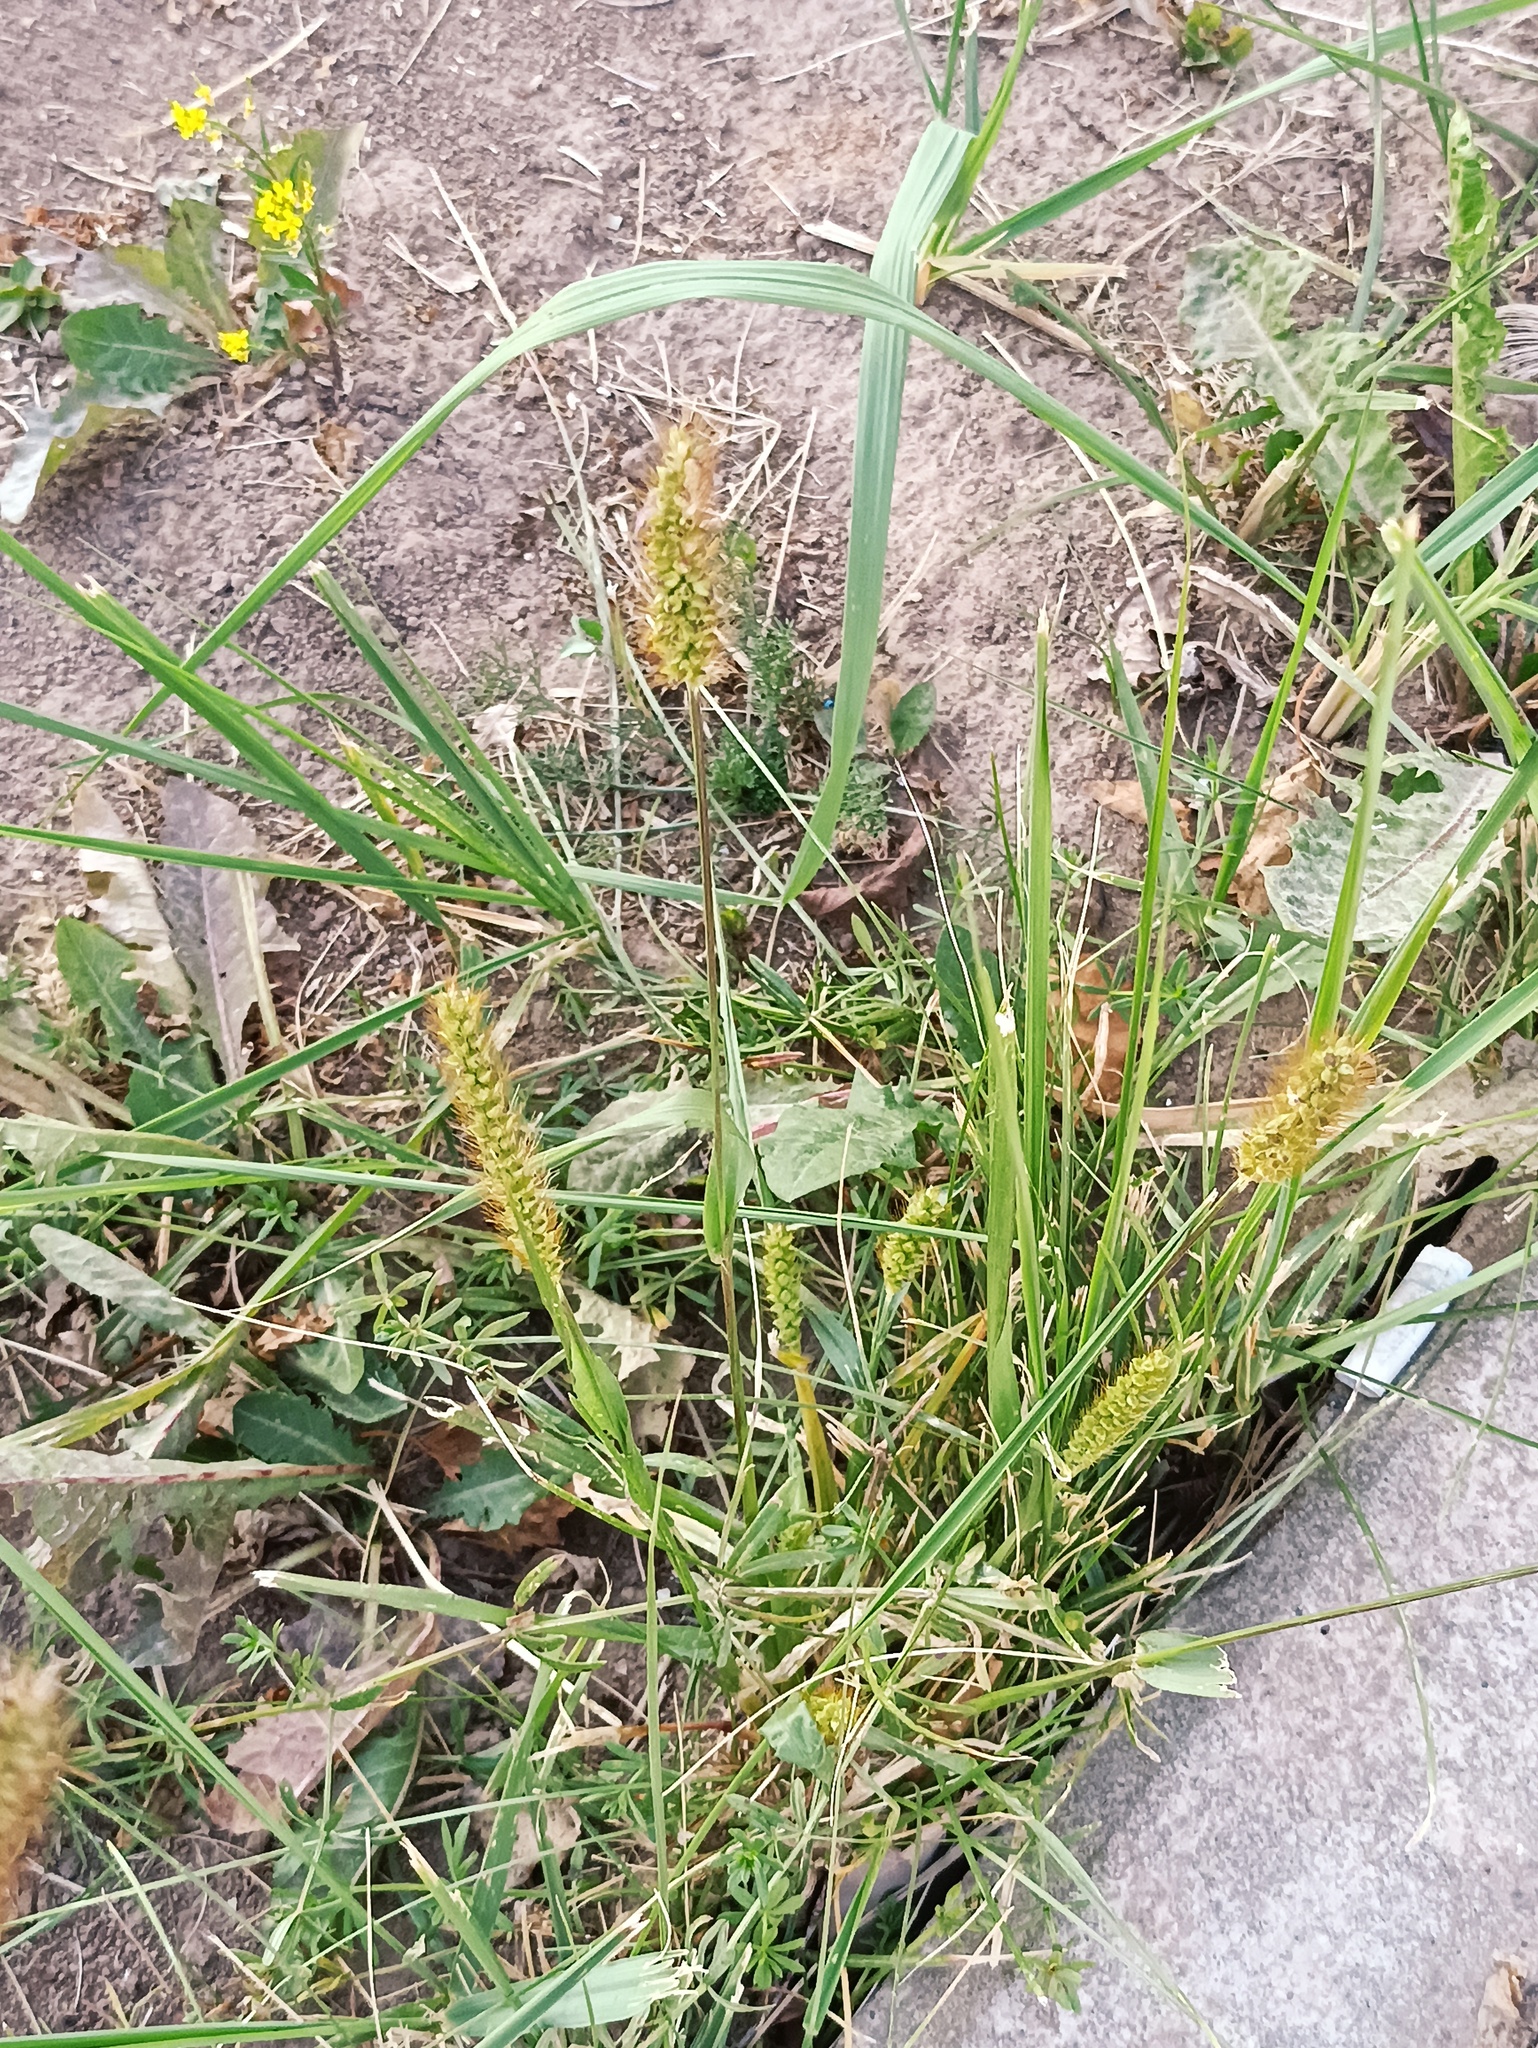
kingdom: Plantae
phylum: Tracheophyta
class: Liliopsida
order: Poales
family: Poaceae
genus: Setaria
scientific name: Setaria pumila
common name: Yellow bristle-grass
